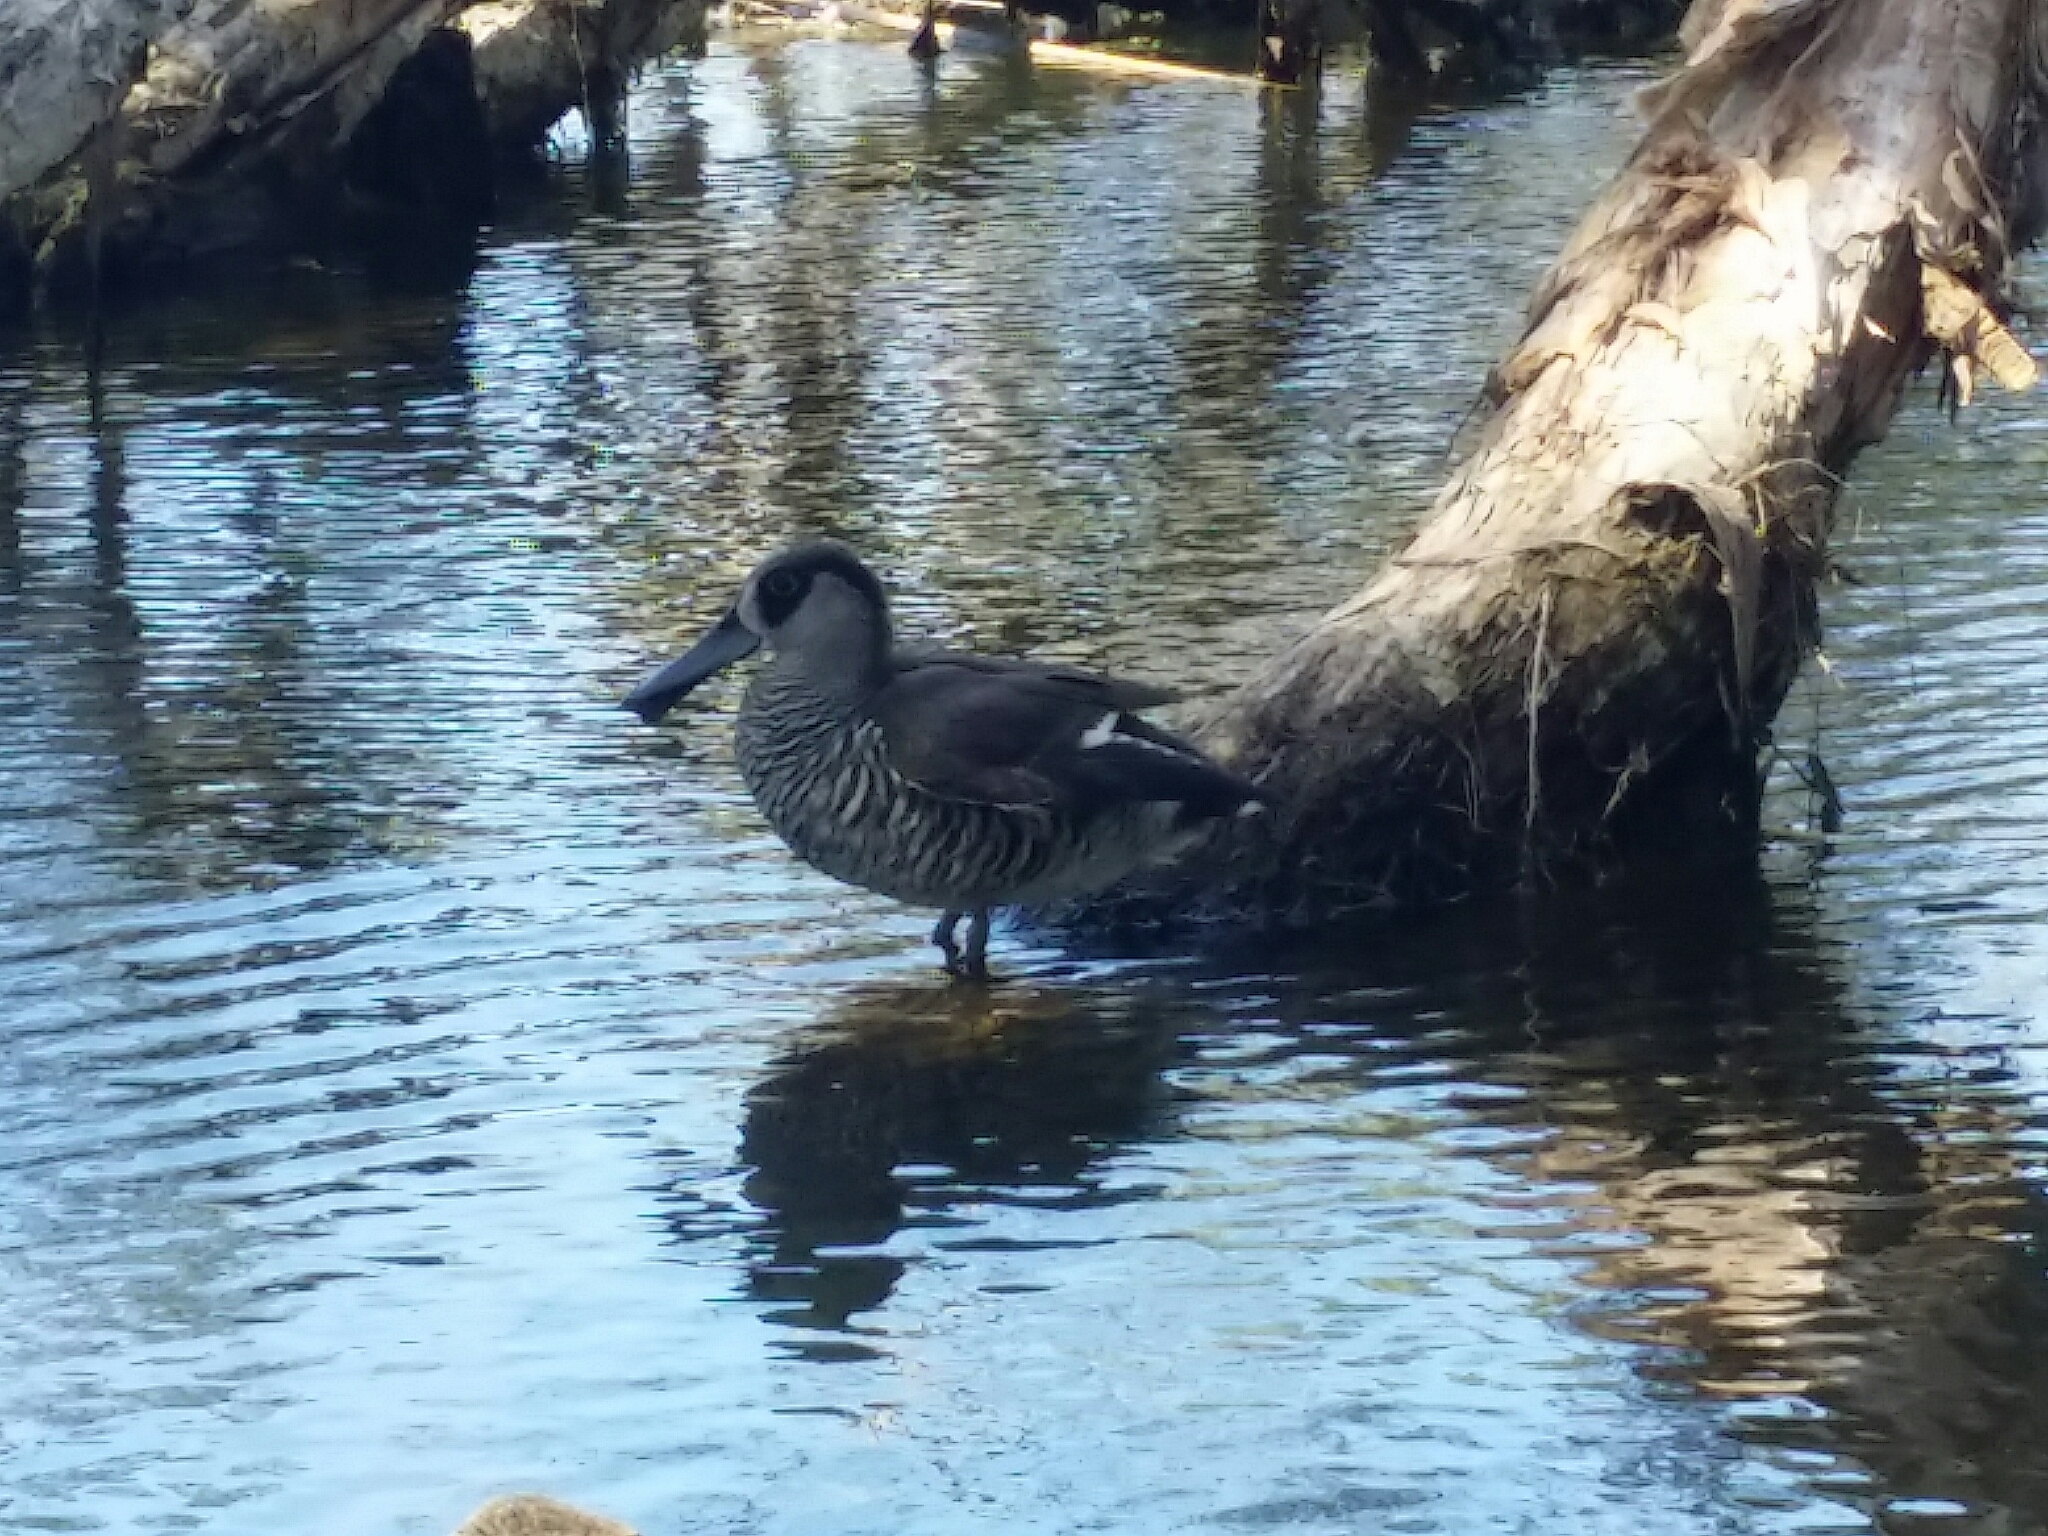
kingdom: Animalia
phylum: Chordata
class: Aves
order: Anseriformes
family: Anatidae
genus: Malacorhynchus
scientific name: Malacorhynchus membranaceus
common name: Pink-eared duck
